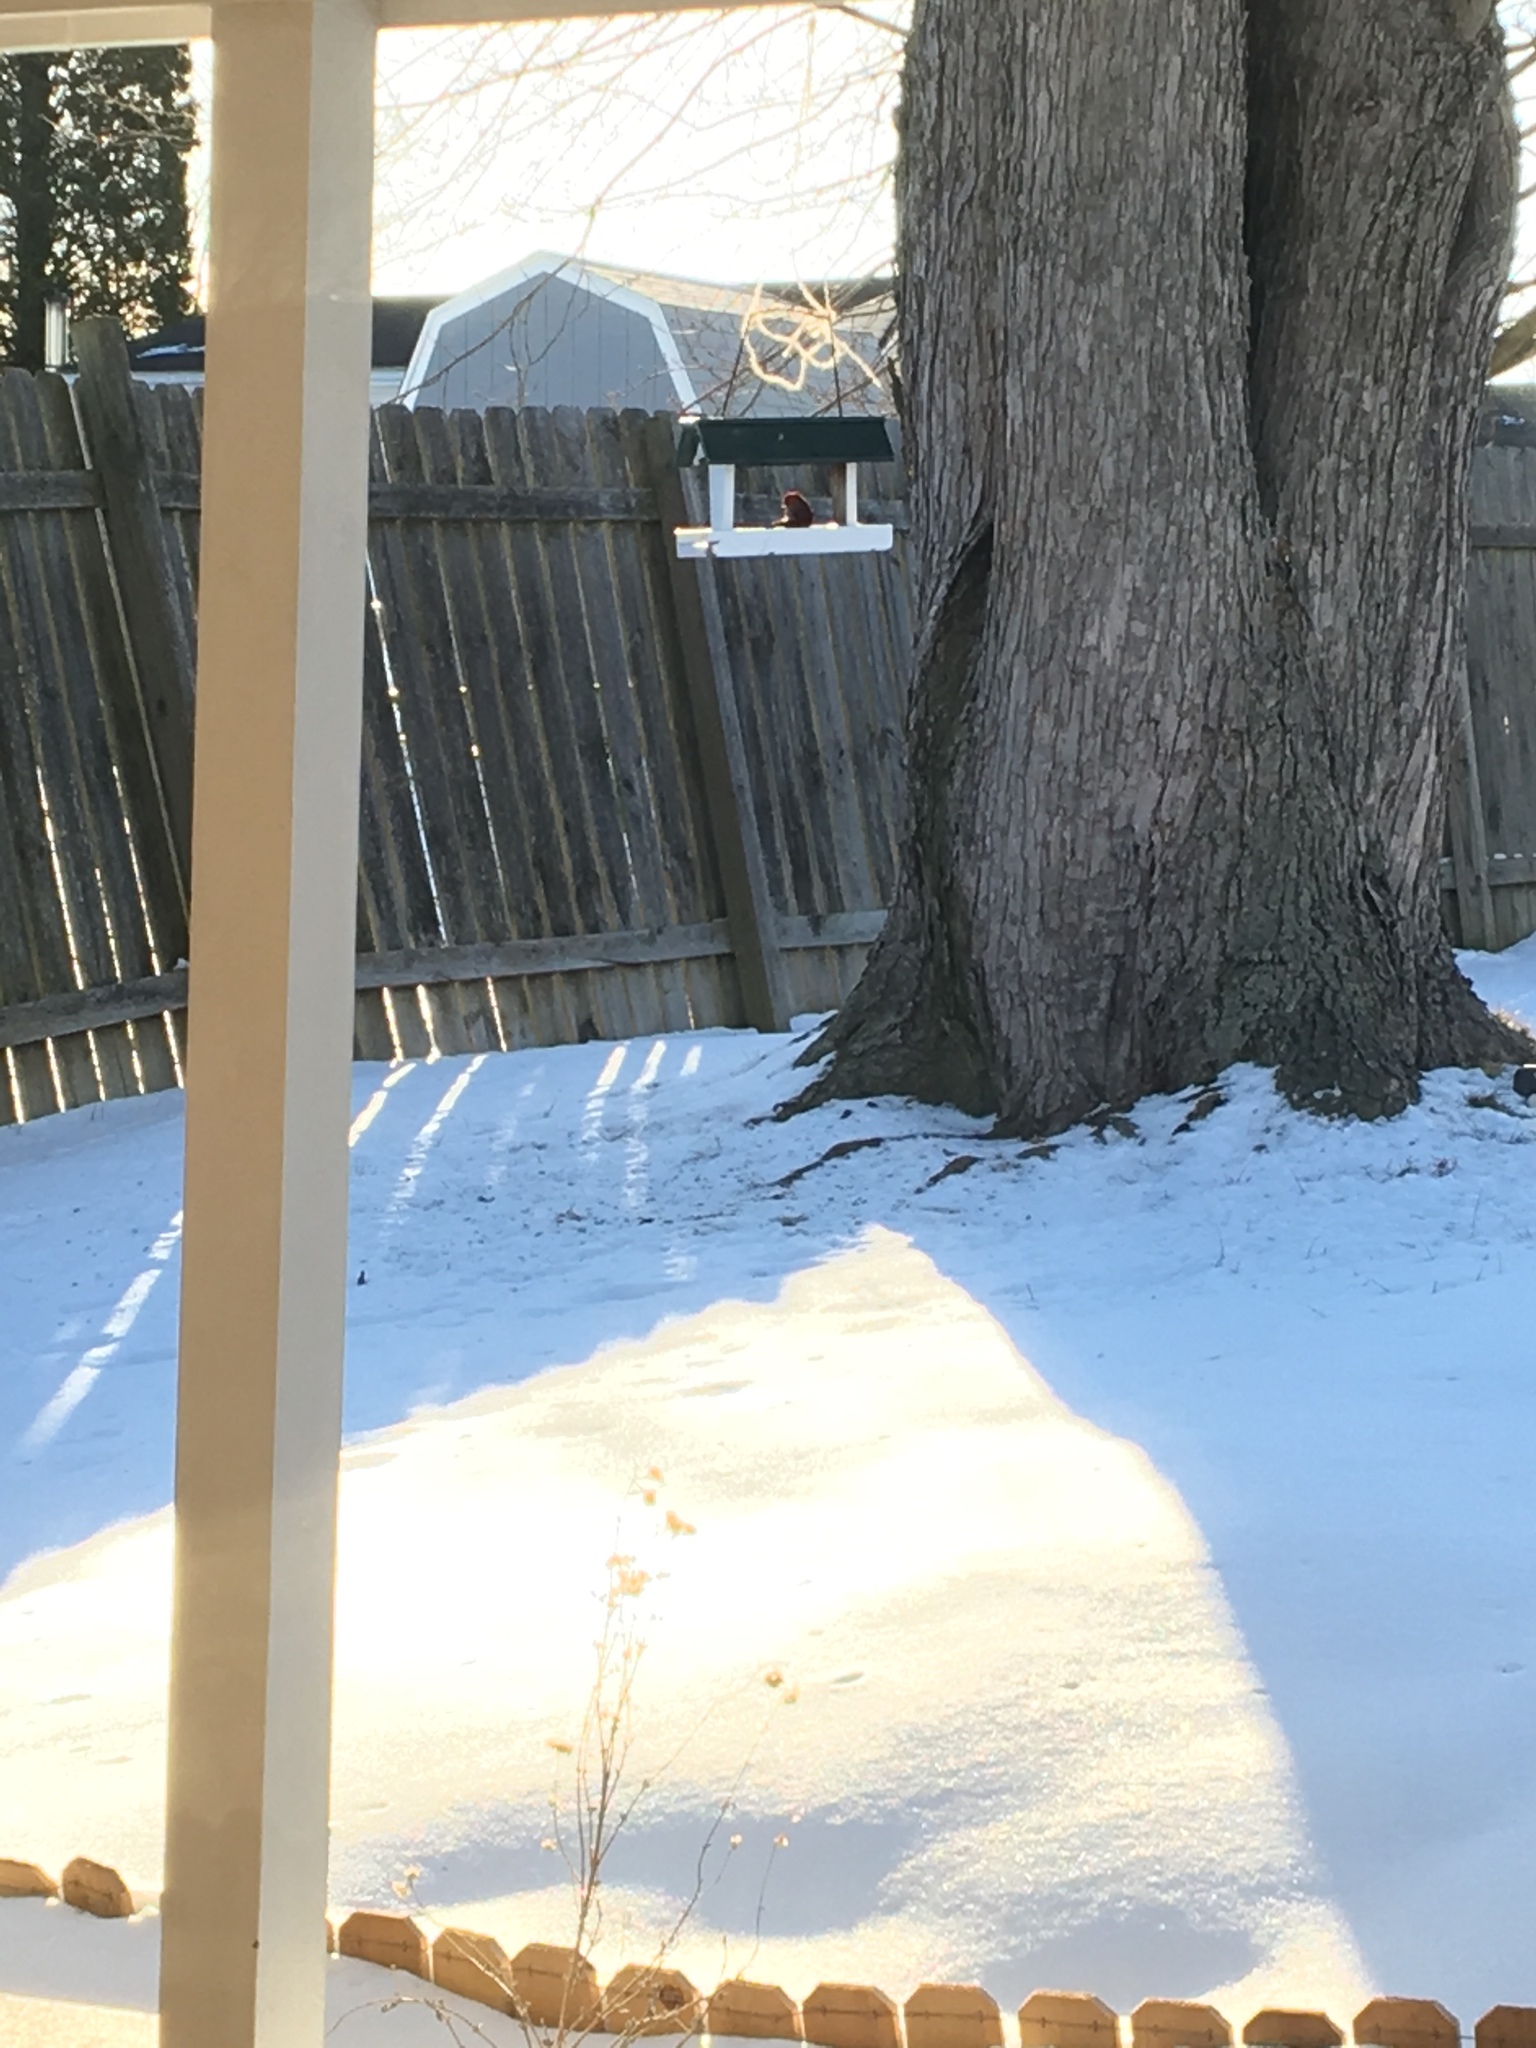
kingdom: Animalia
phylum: Chordata
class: Aves
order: Passeriformes
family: Cardinalidae
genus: Cardinalis
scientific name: Cardinalis cardinalis
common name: Northern cardinal
